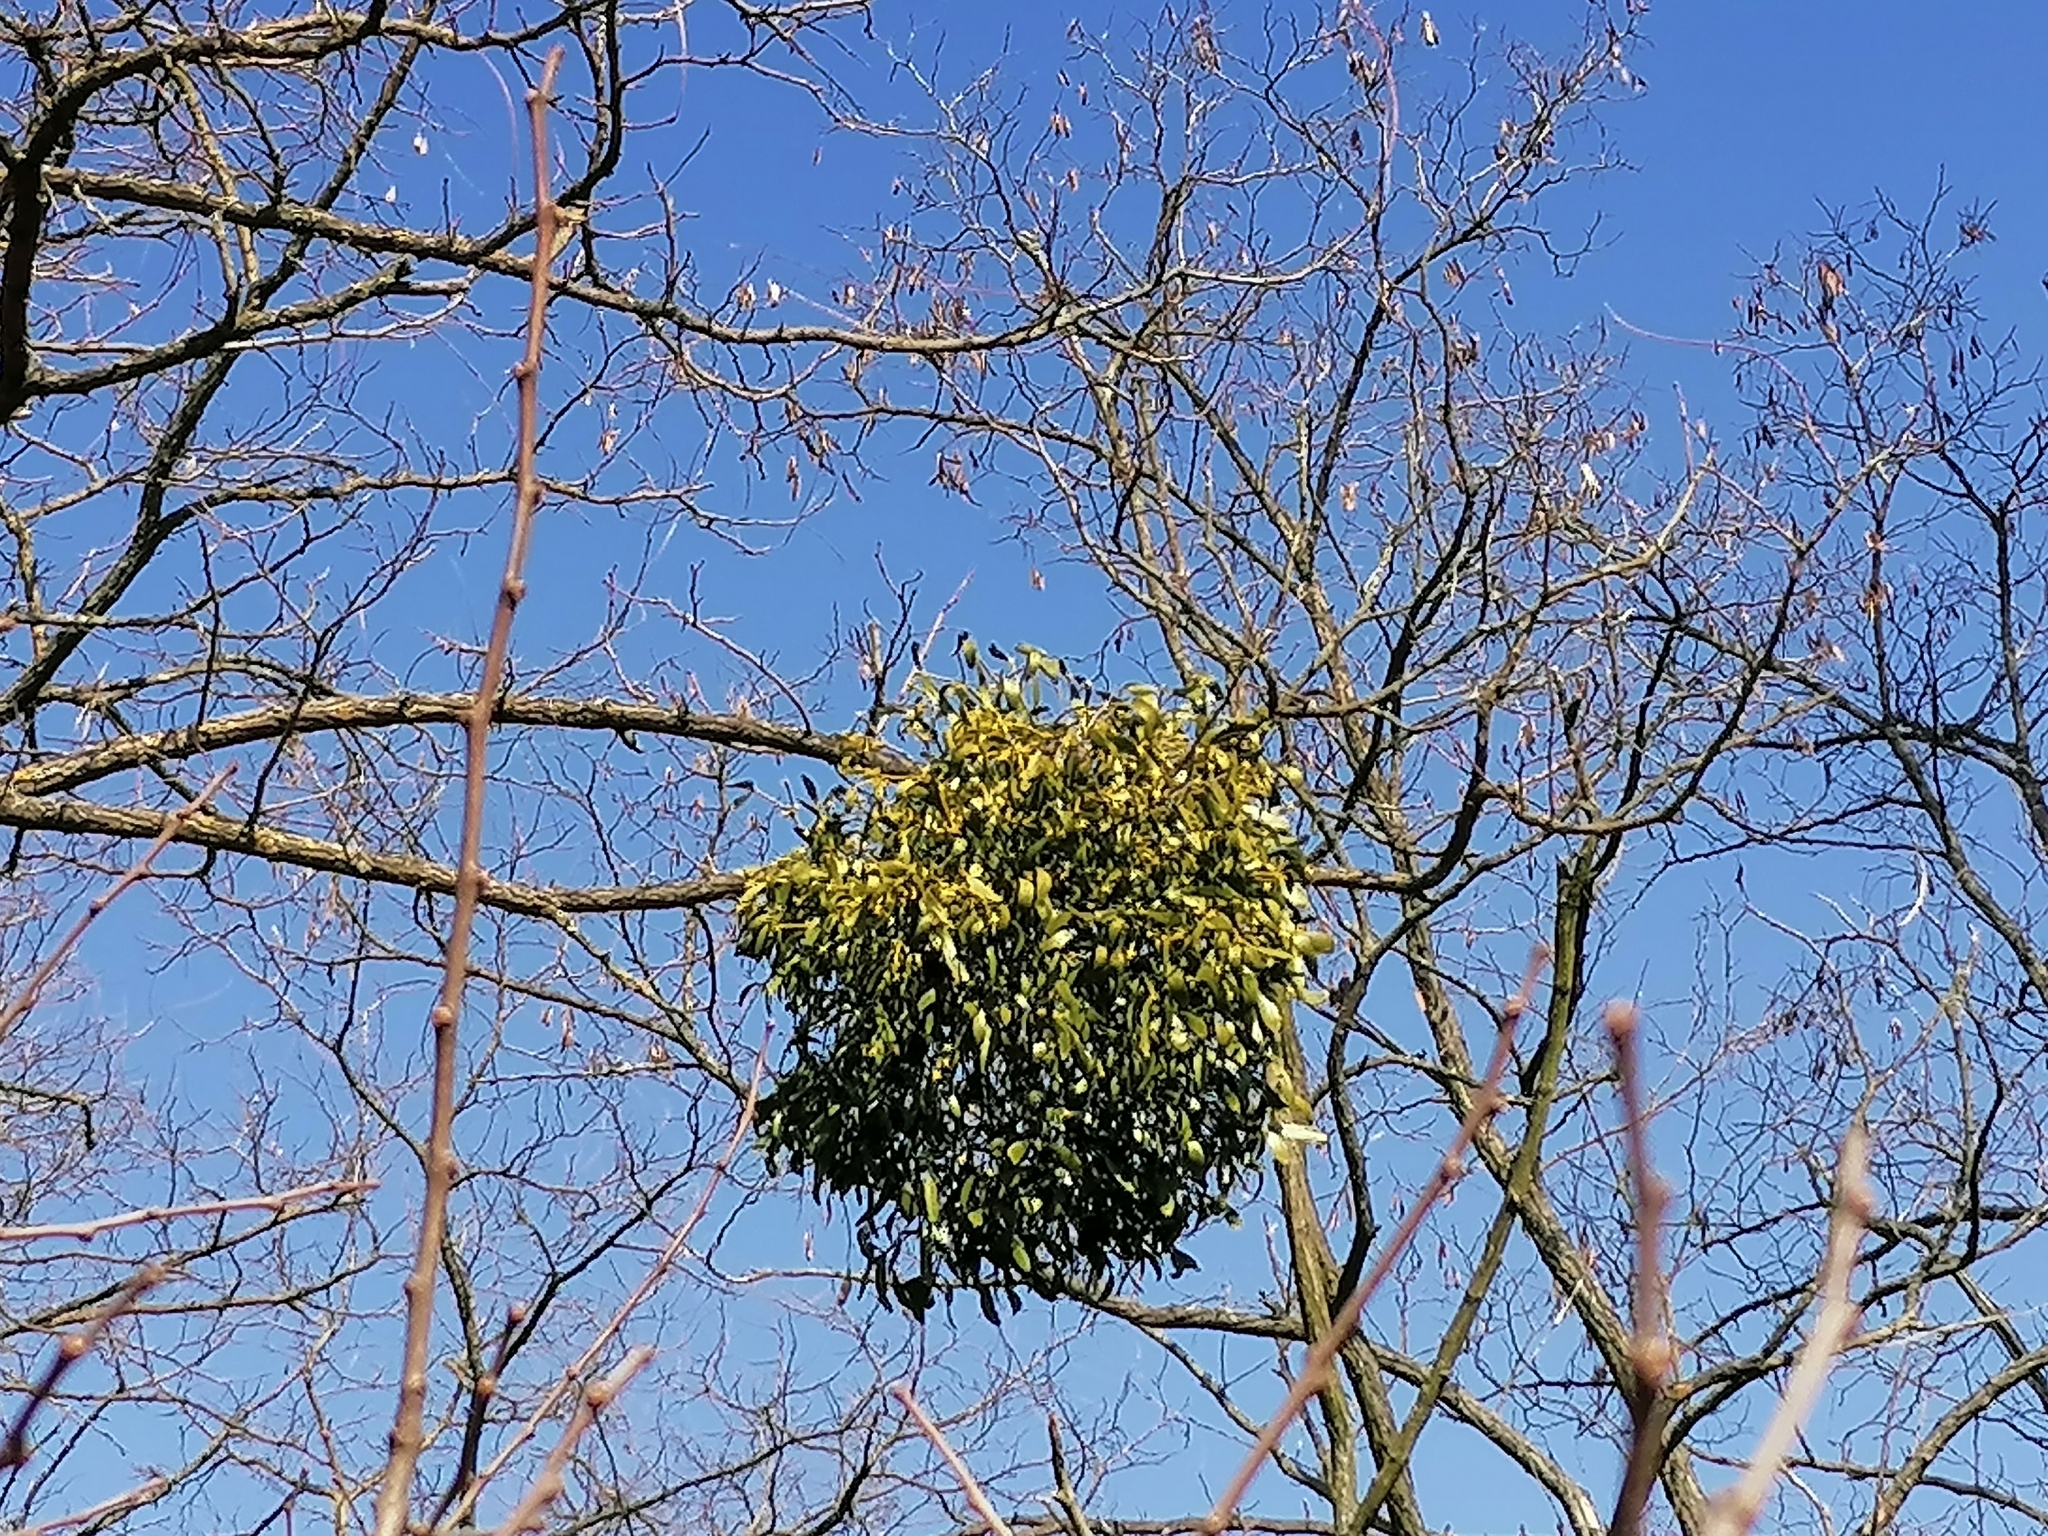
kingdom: Plantae
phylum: Tracheophyta
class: Magnoliopsida
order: Santalales
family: Viscaceae
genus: Viscum
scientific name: Viscum album
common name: Mistletoe
